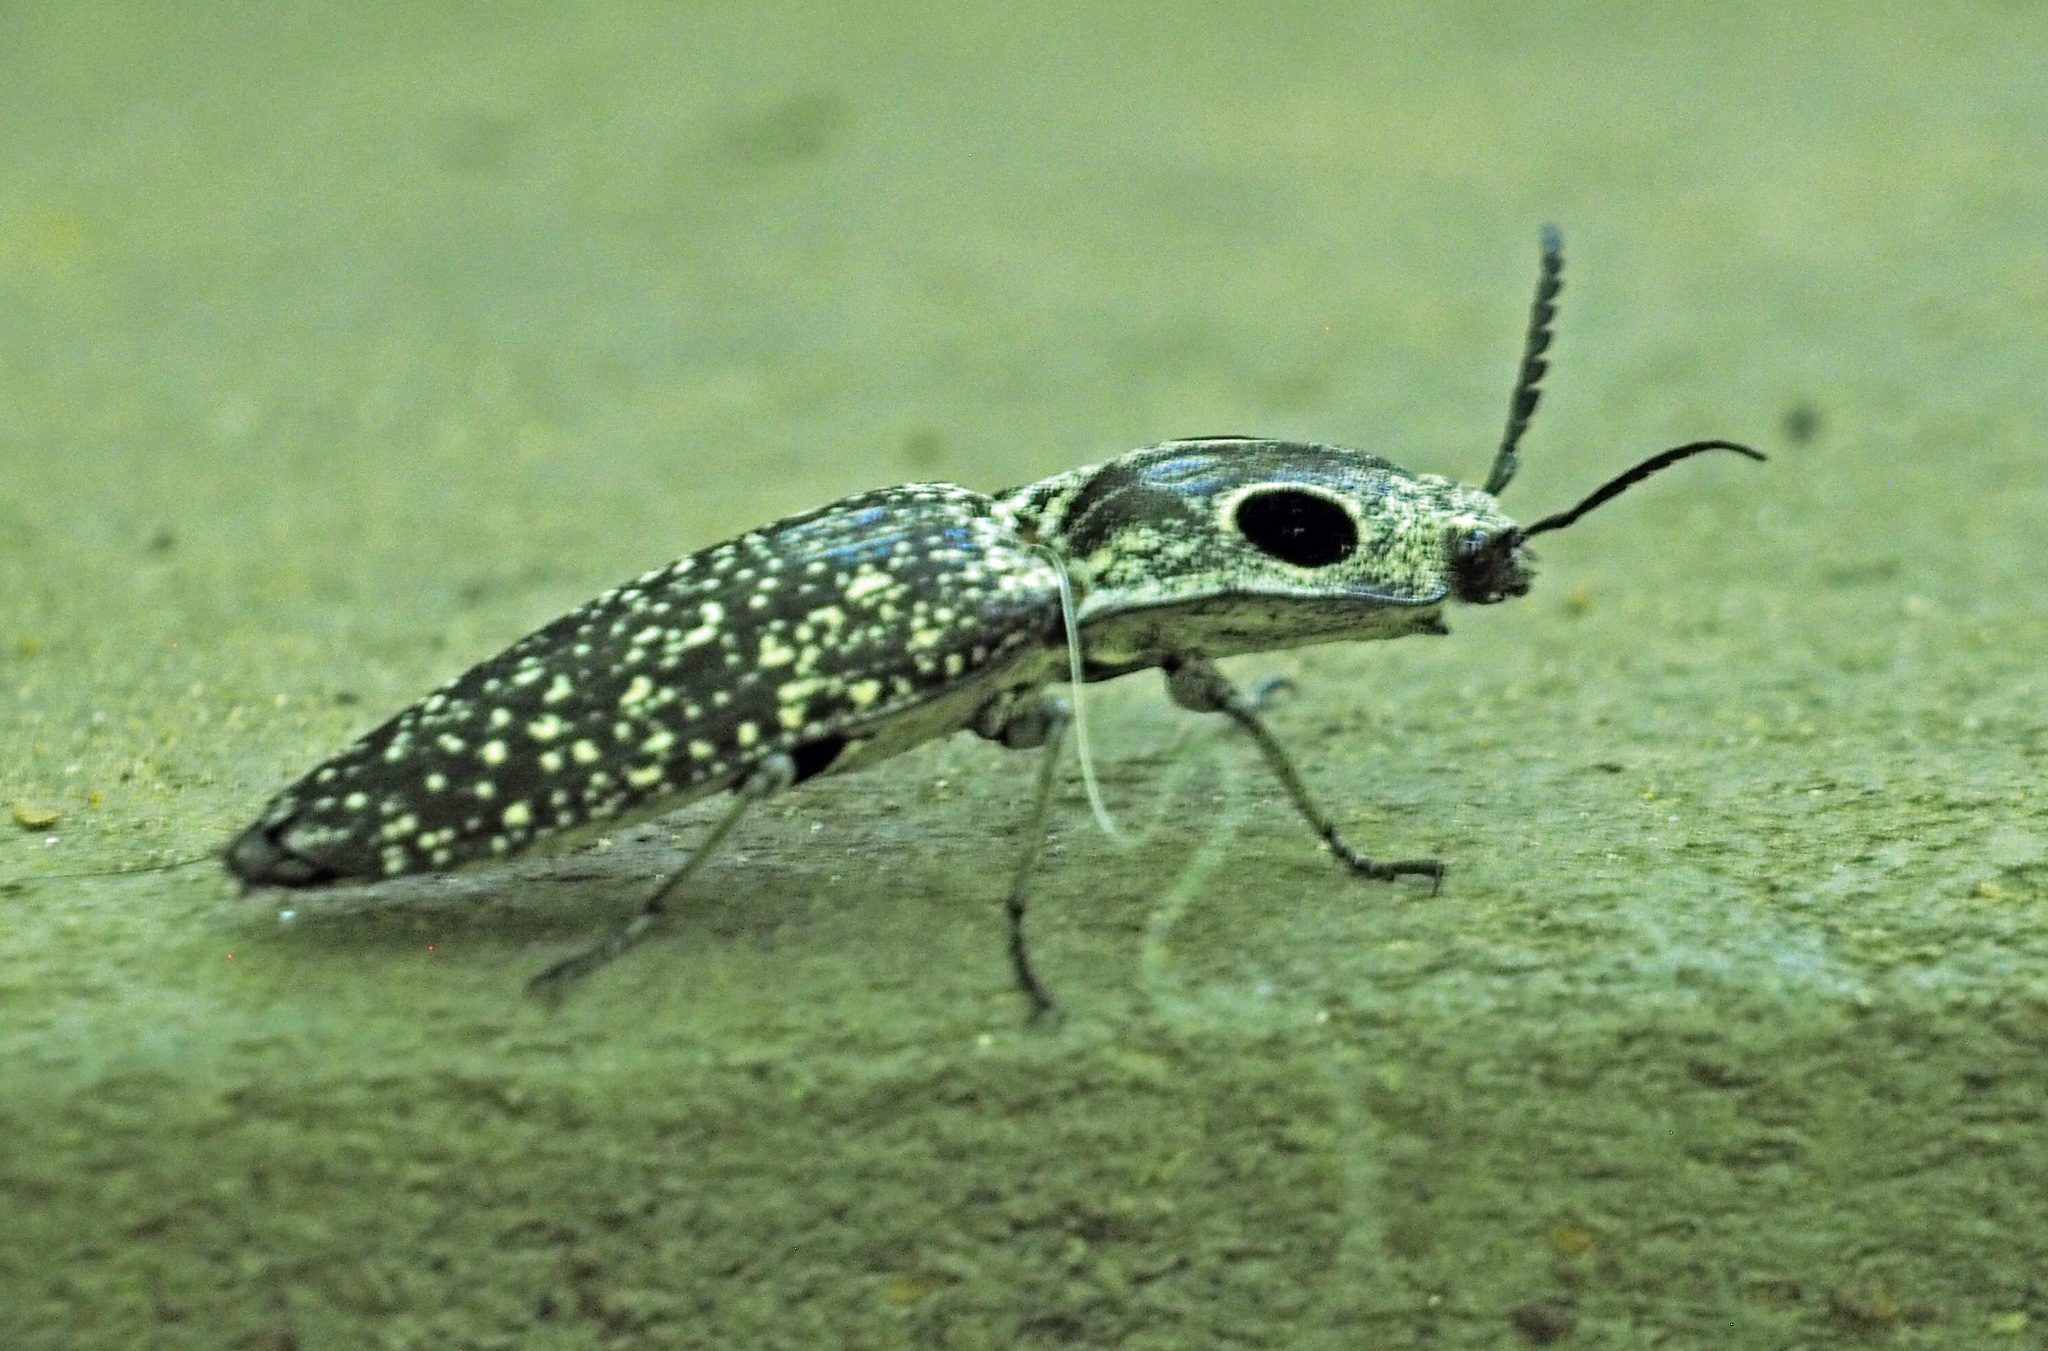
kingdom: Animalia
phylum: Arthropoda
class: Insecta
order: Coleoptera
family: Elateridae
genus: Alaus
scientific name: Alaus oculatus
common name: Eastern eyed click beetle
